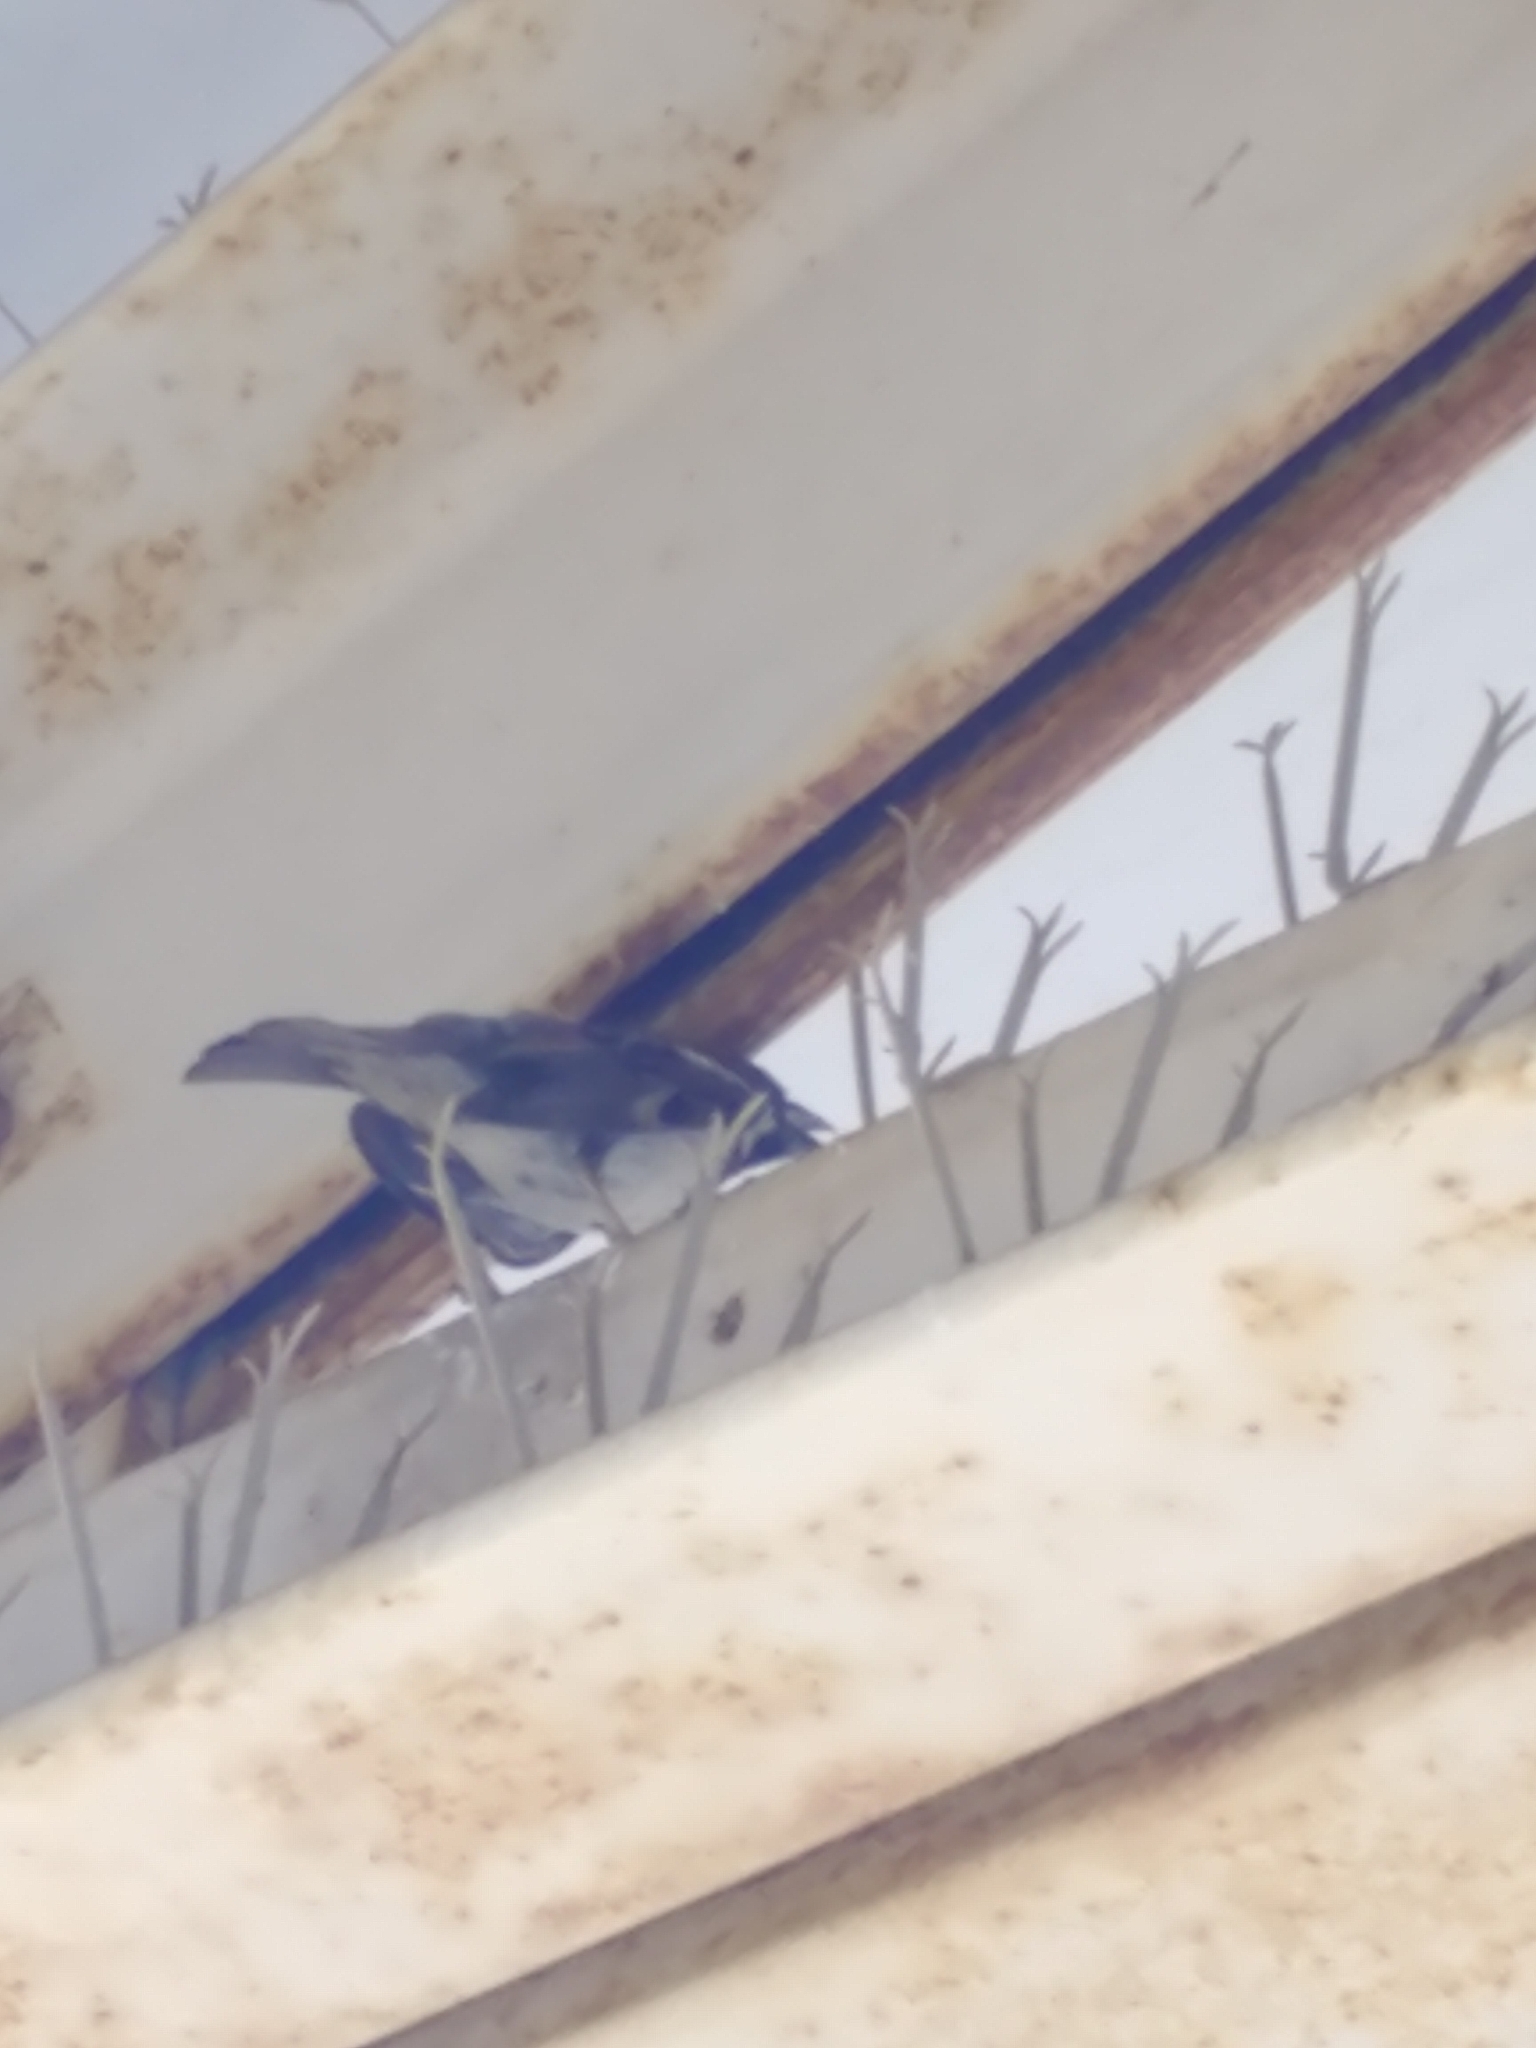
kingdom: Animalia
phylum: Chordata
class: Aves
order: Passeriformes
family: Passeridae
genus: Passer
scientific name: Passer domesticus
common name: House sparrow
